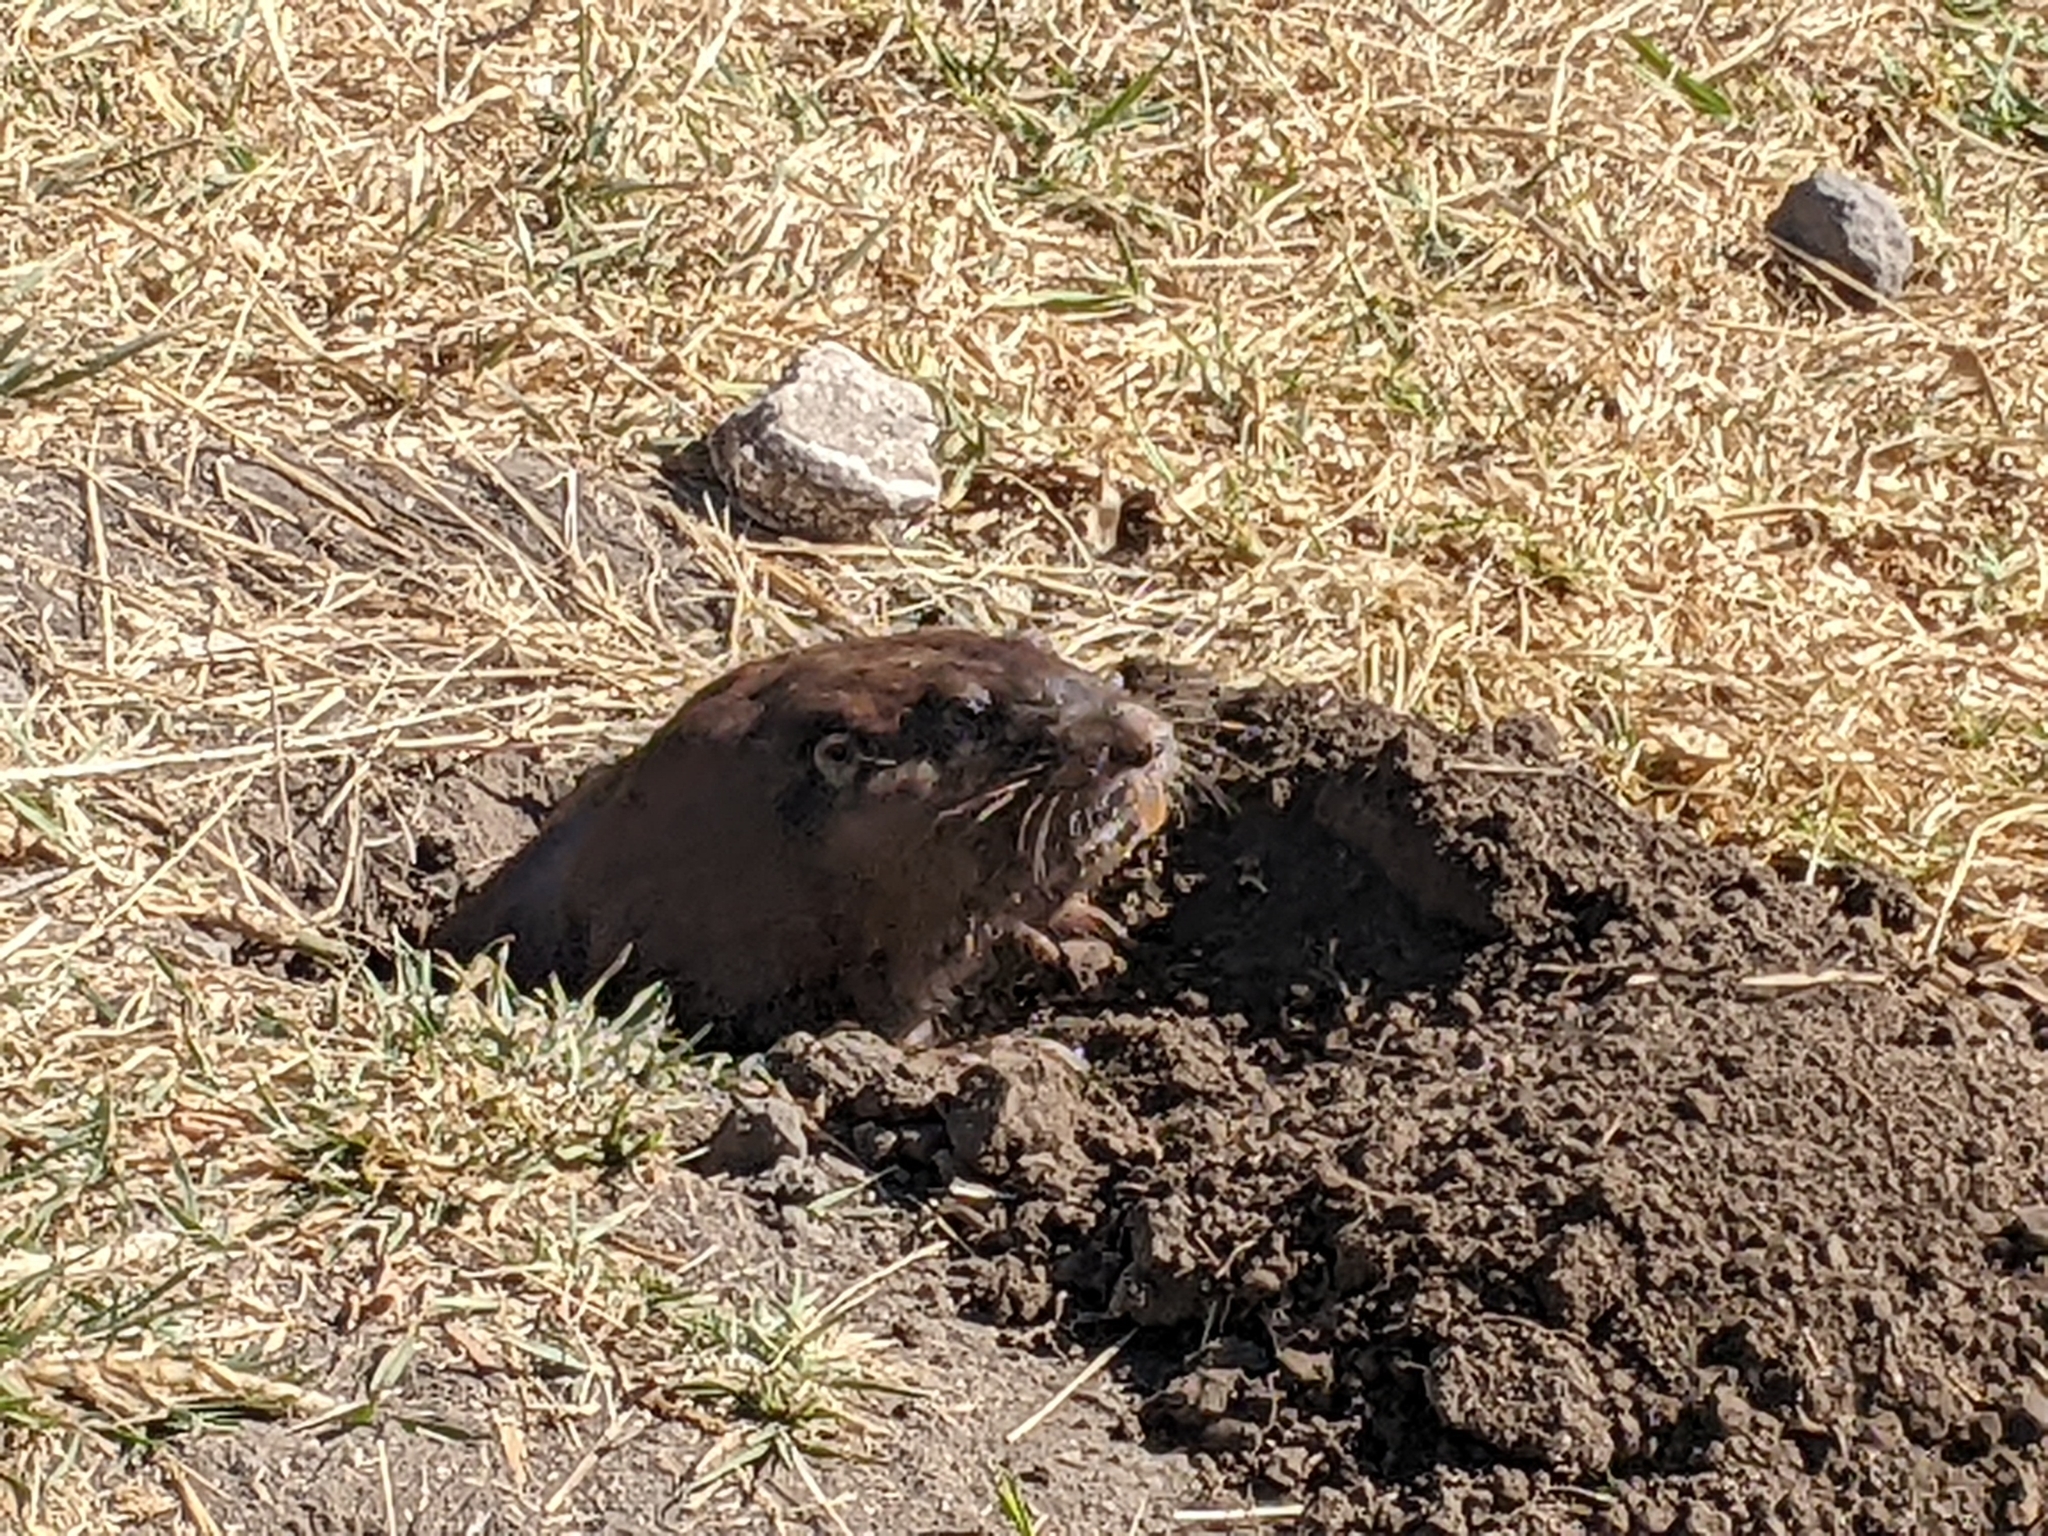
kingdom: Animalia
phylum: Chordata
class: Mammalia
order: Rodentia
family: Geomyidae
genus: Cratogeomys
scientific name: Cratogeomys fumosus
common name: Smoky pocket gopher
